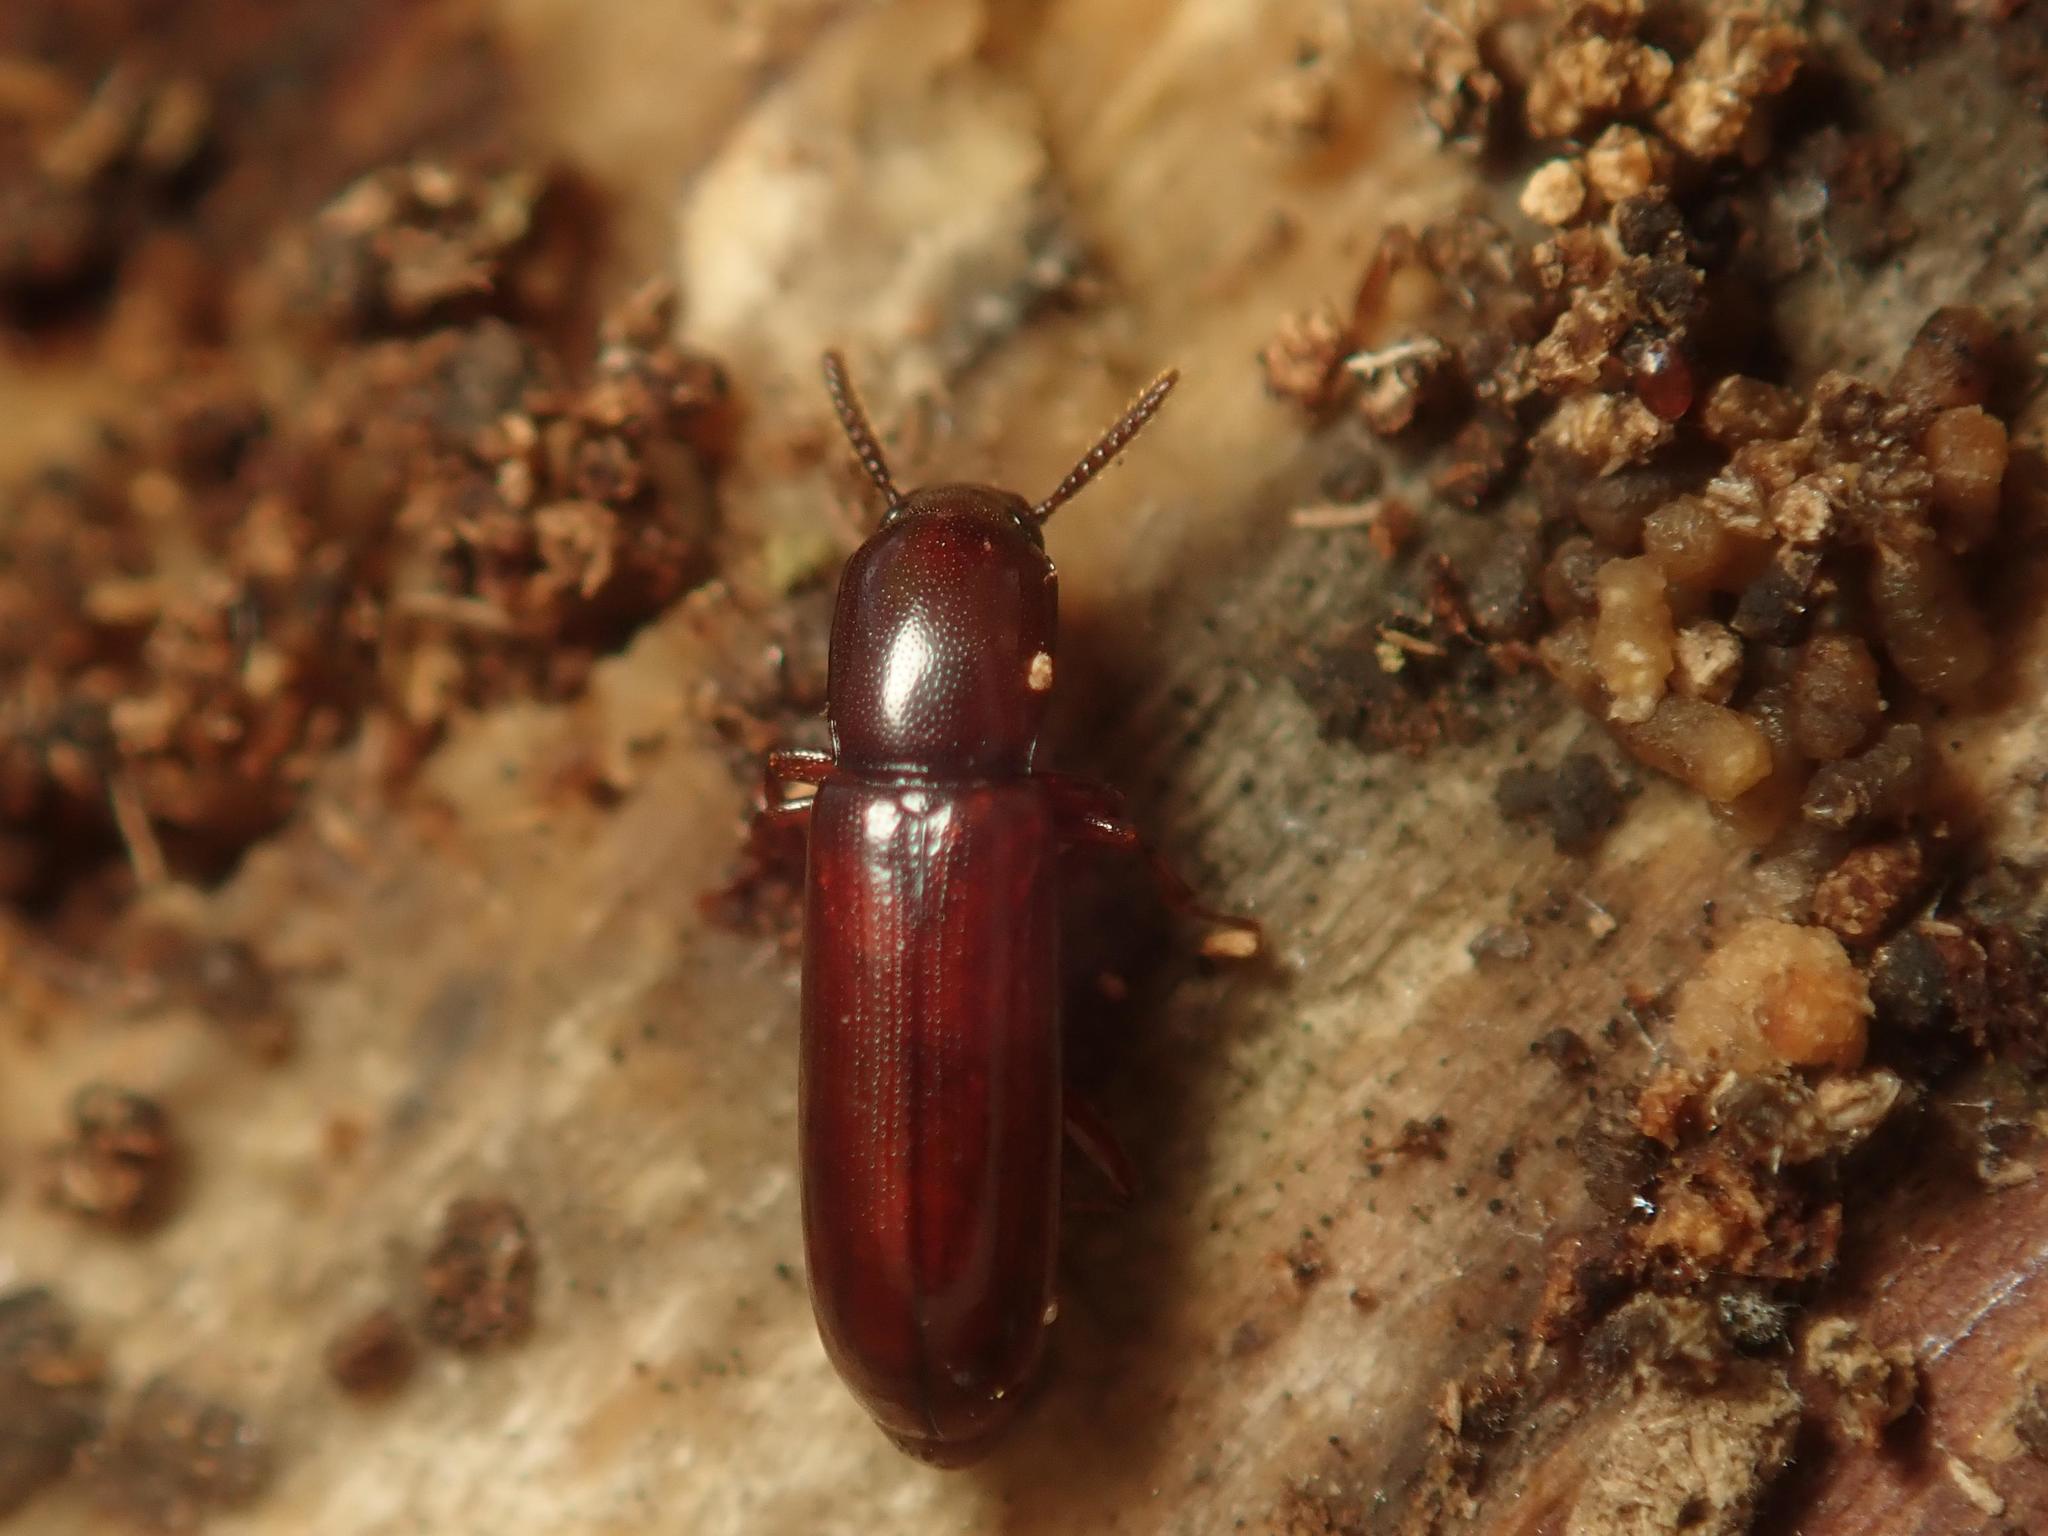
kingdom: Animalia
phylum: Arthropoda
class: Insecta
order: Coleoptera
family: Tenebrionidae
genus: Corticeus
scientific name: Corticeus unicolor
